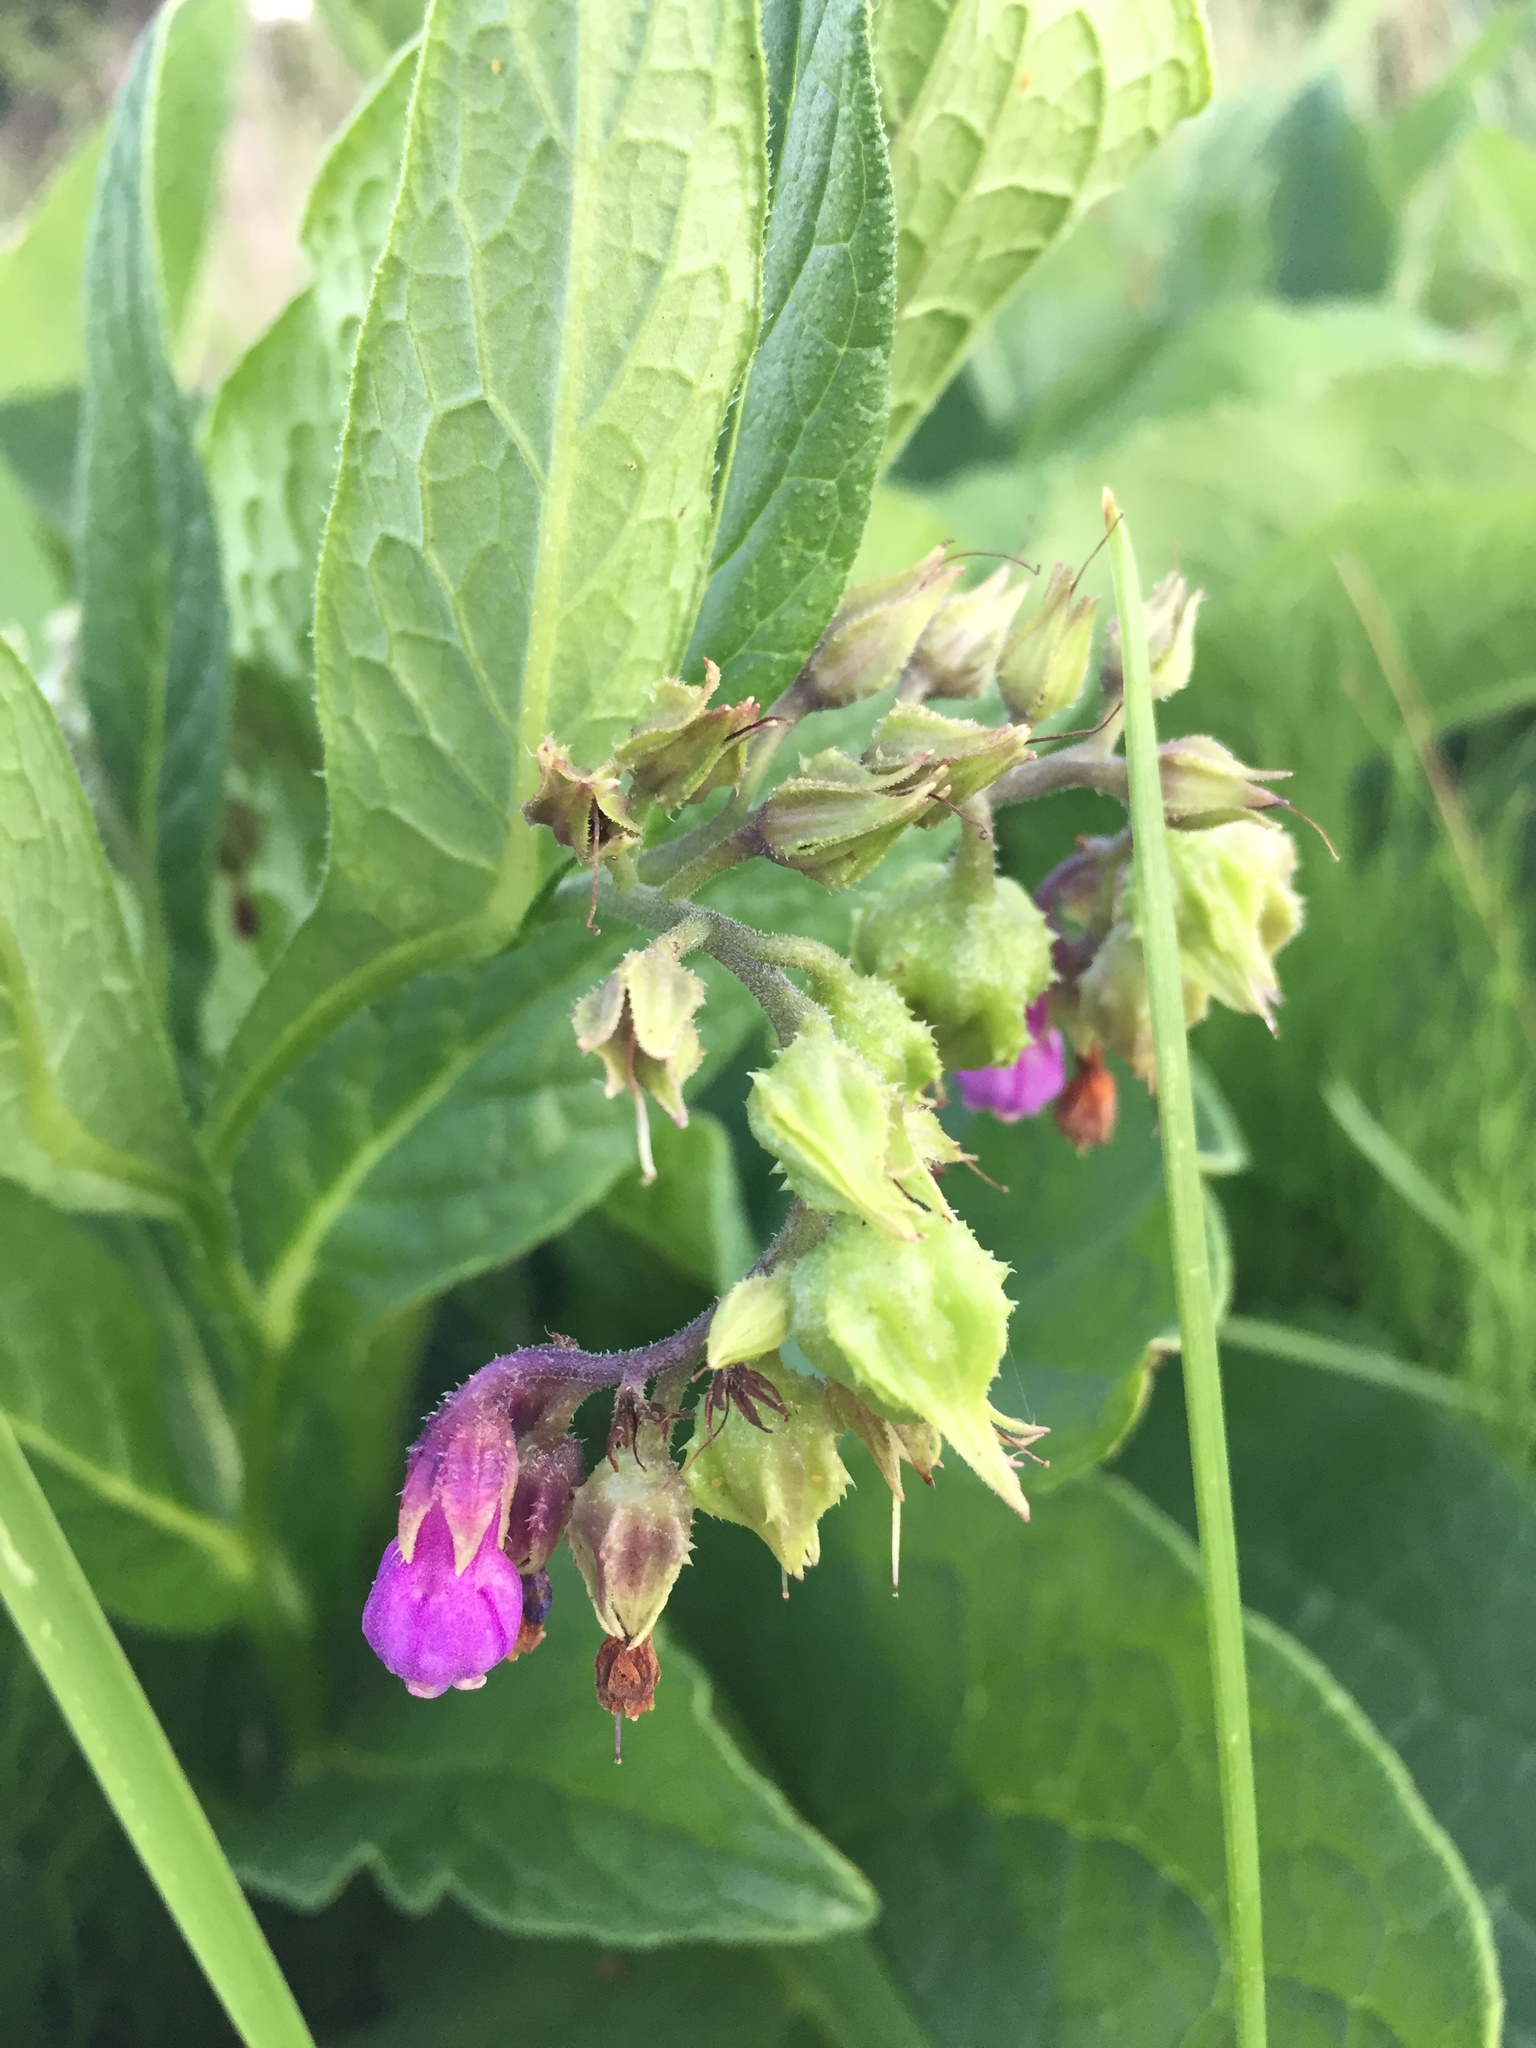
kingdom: Plantae
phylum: Tracheophyta
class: Magnoliopsida
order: Boraginales
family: Boraginaceae
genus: Symphytum
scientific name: Symphytum officinale
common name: Common comfrey
